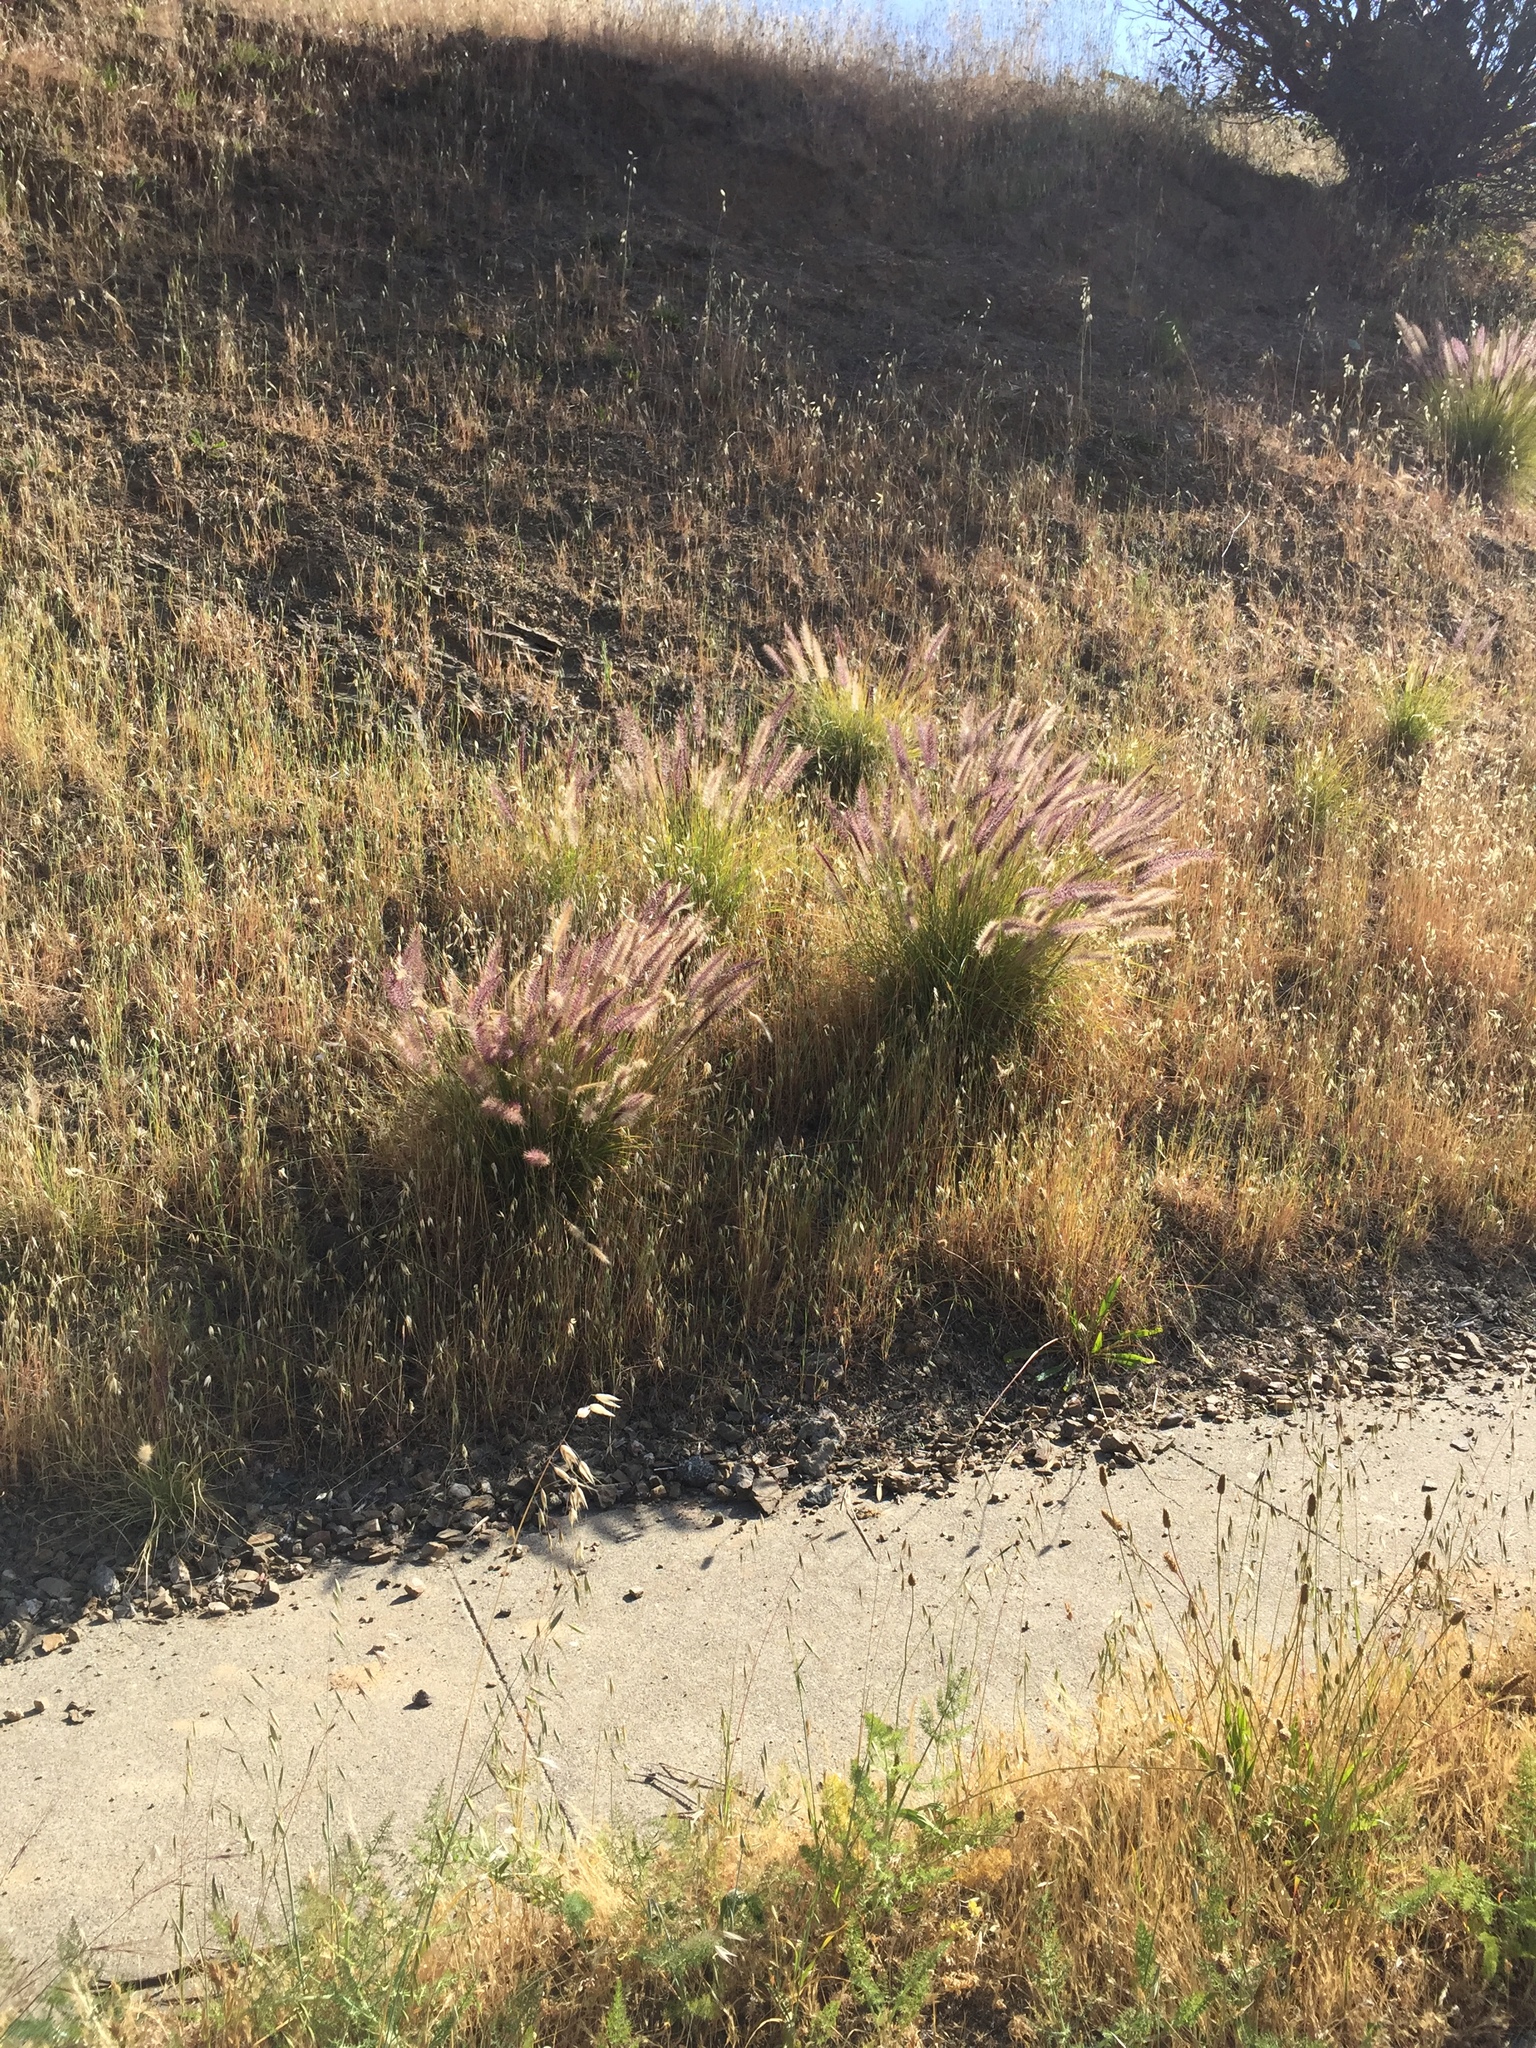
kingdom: Plantae
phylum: Tracheophyta
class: Liliopsida
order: Poales
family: Poaceae
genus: Cenchrus
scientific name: Cenchrus setaceus
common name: Crimson fountaingrass
